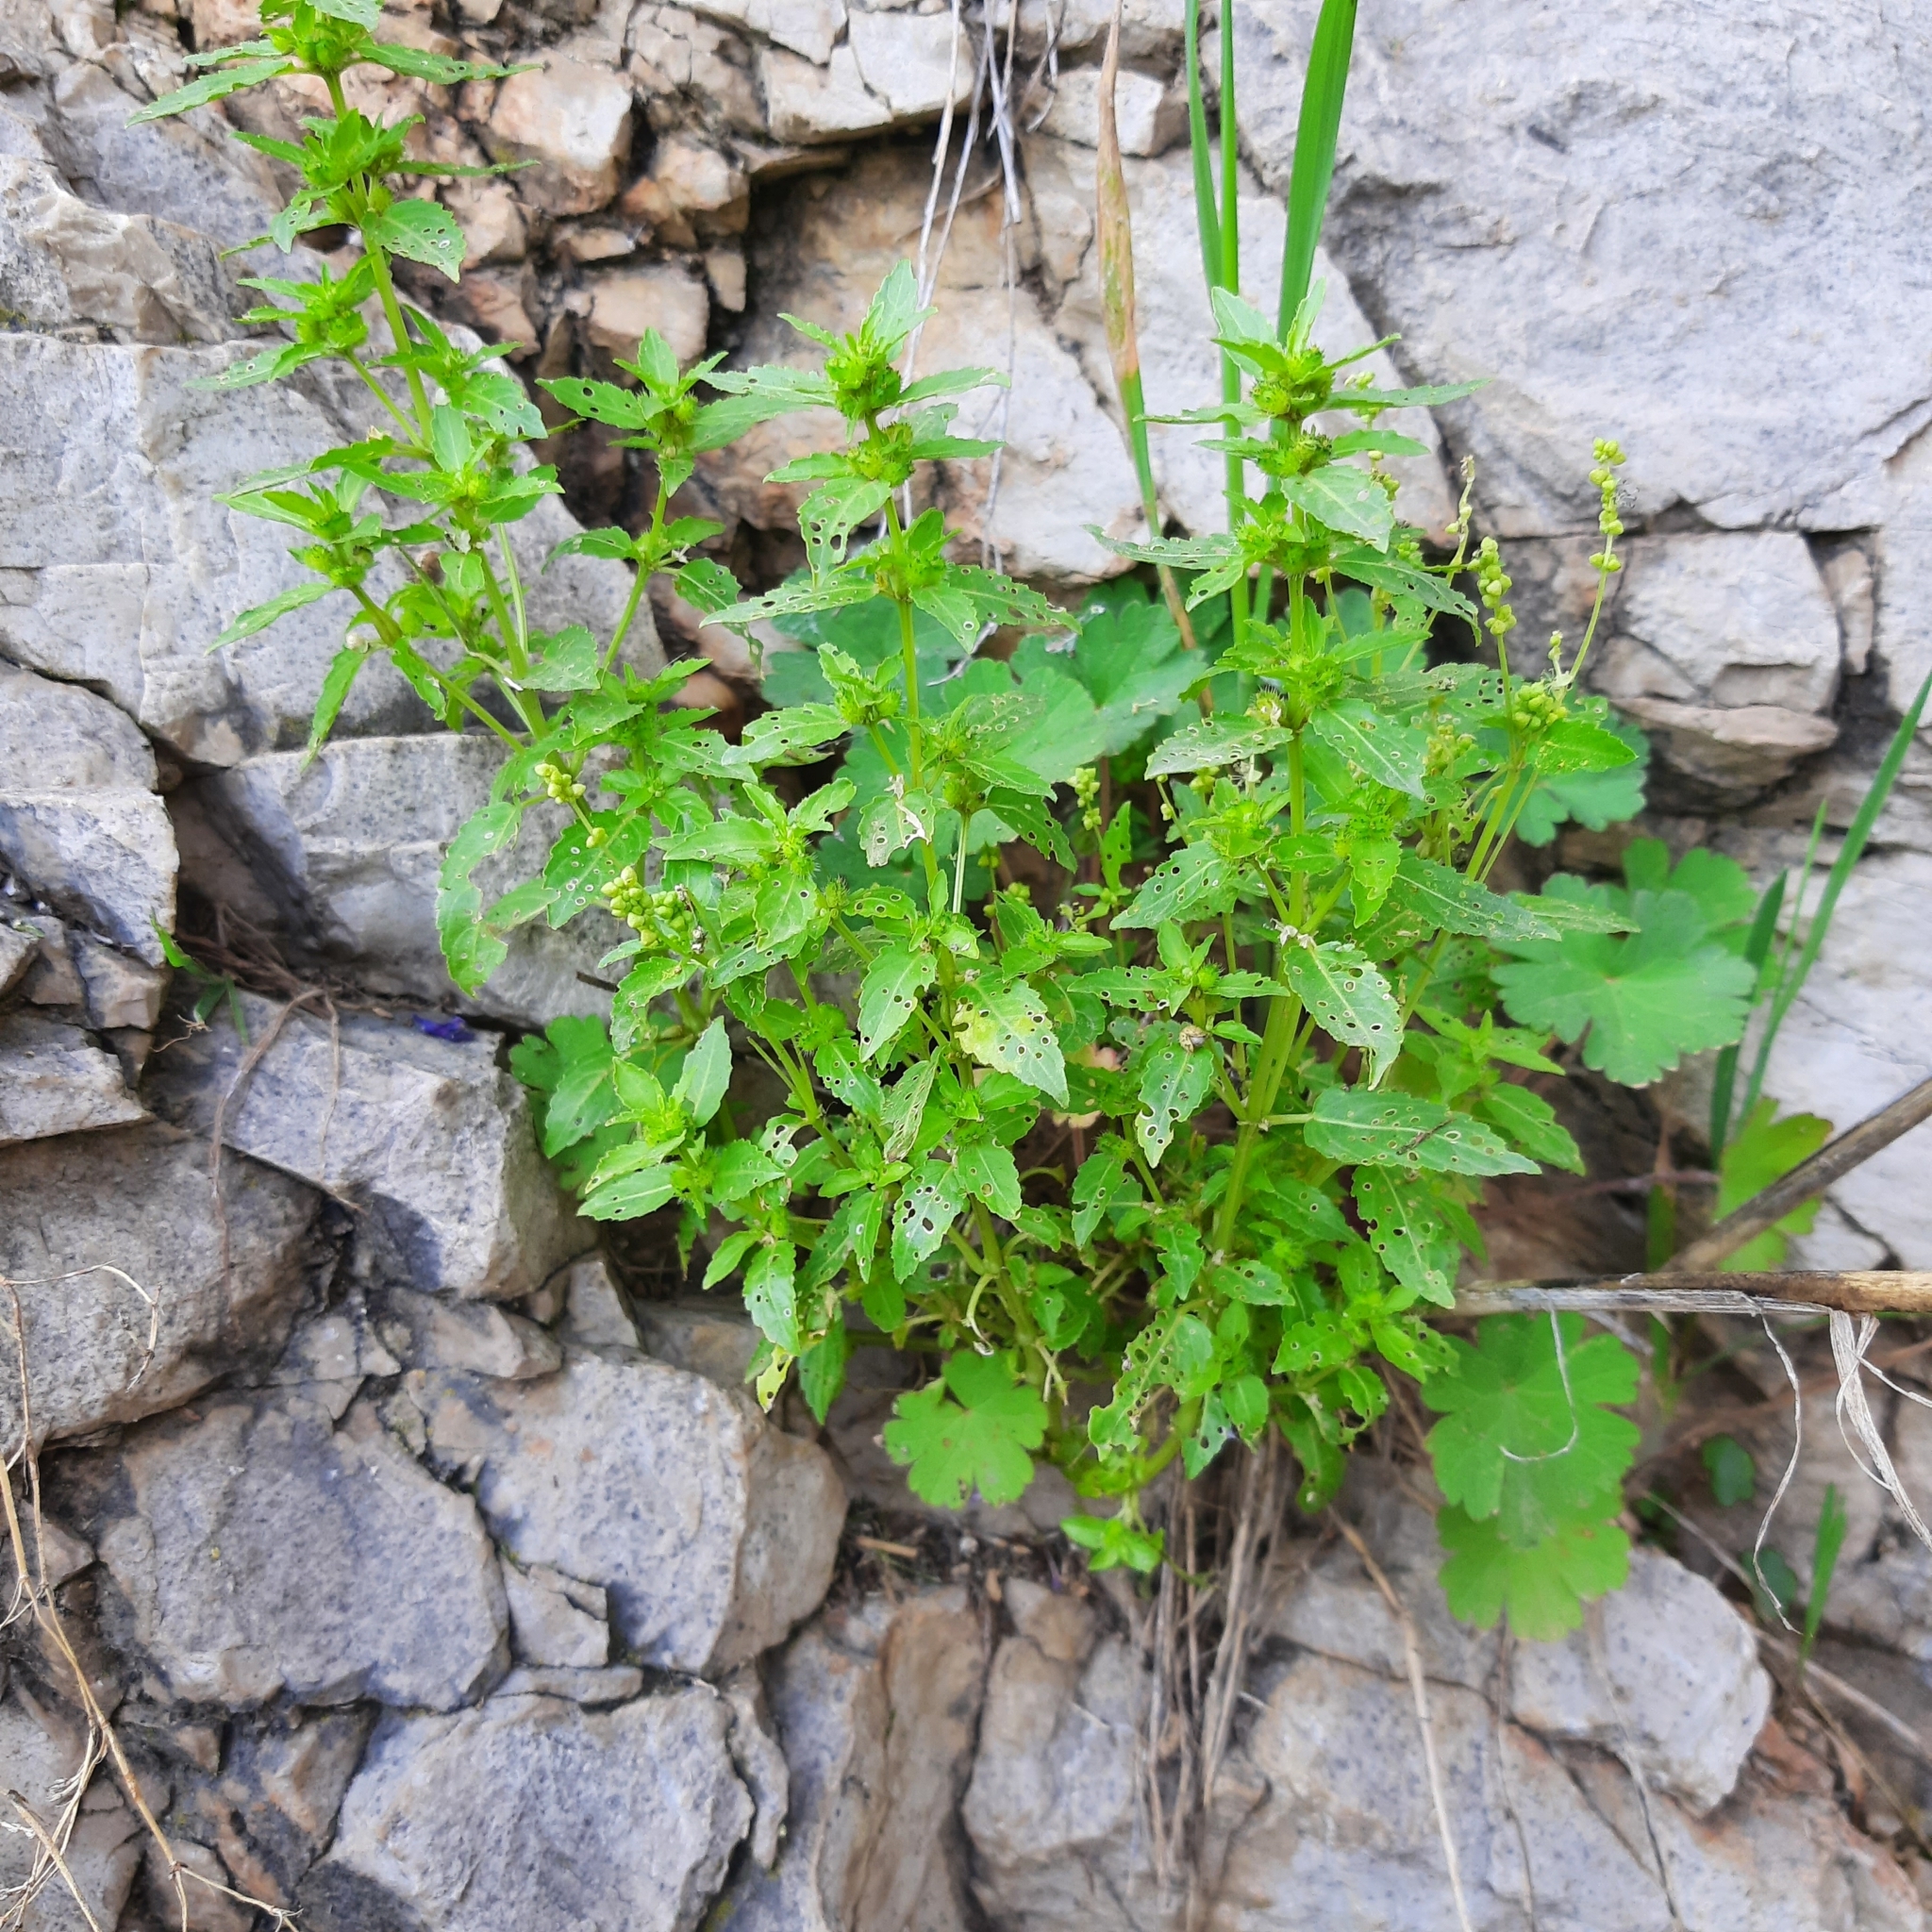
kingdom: Plantae
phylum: Tracheophyta
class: Magnoliopsida
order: Malpighiales
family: Euphorbiaceae
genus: Mercurialis
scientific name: Mercurialis annua
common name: Annual mercury
